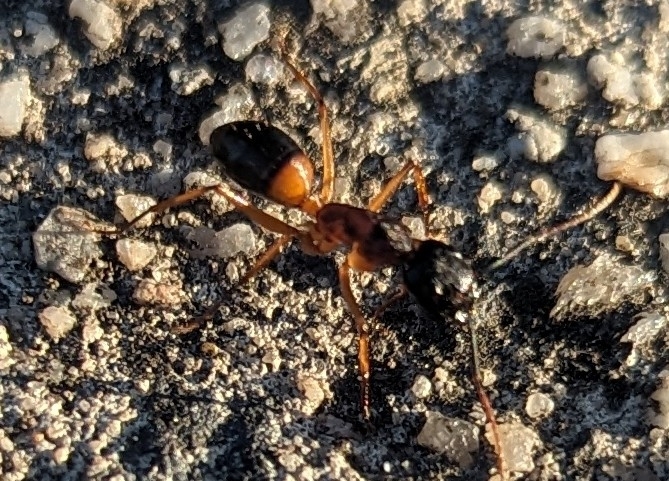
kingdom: Animalia
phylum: Arthropoda
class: Insecta
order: Hymenoptera
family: Formicidae
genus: Camponotus
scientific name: Camponotus consobrinus
